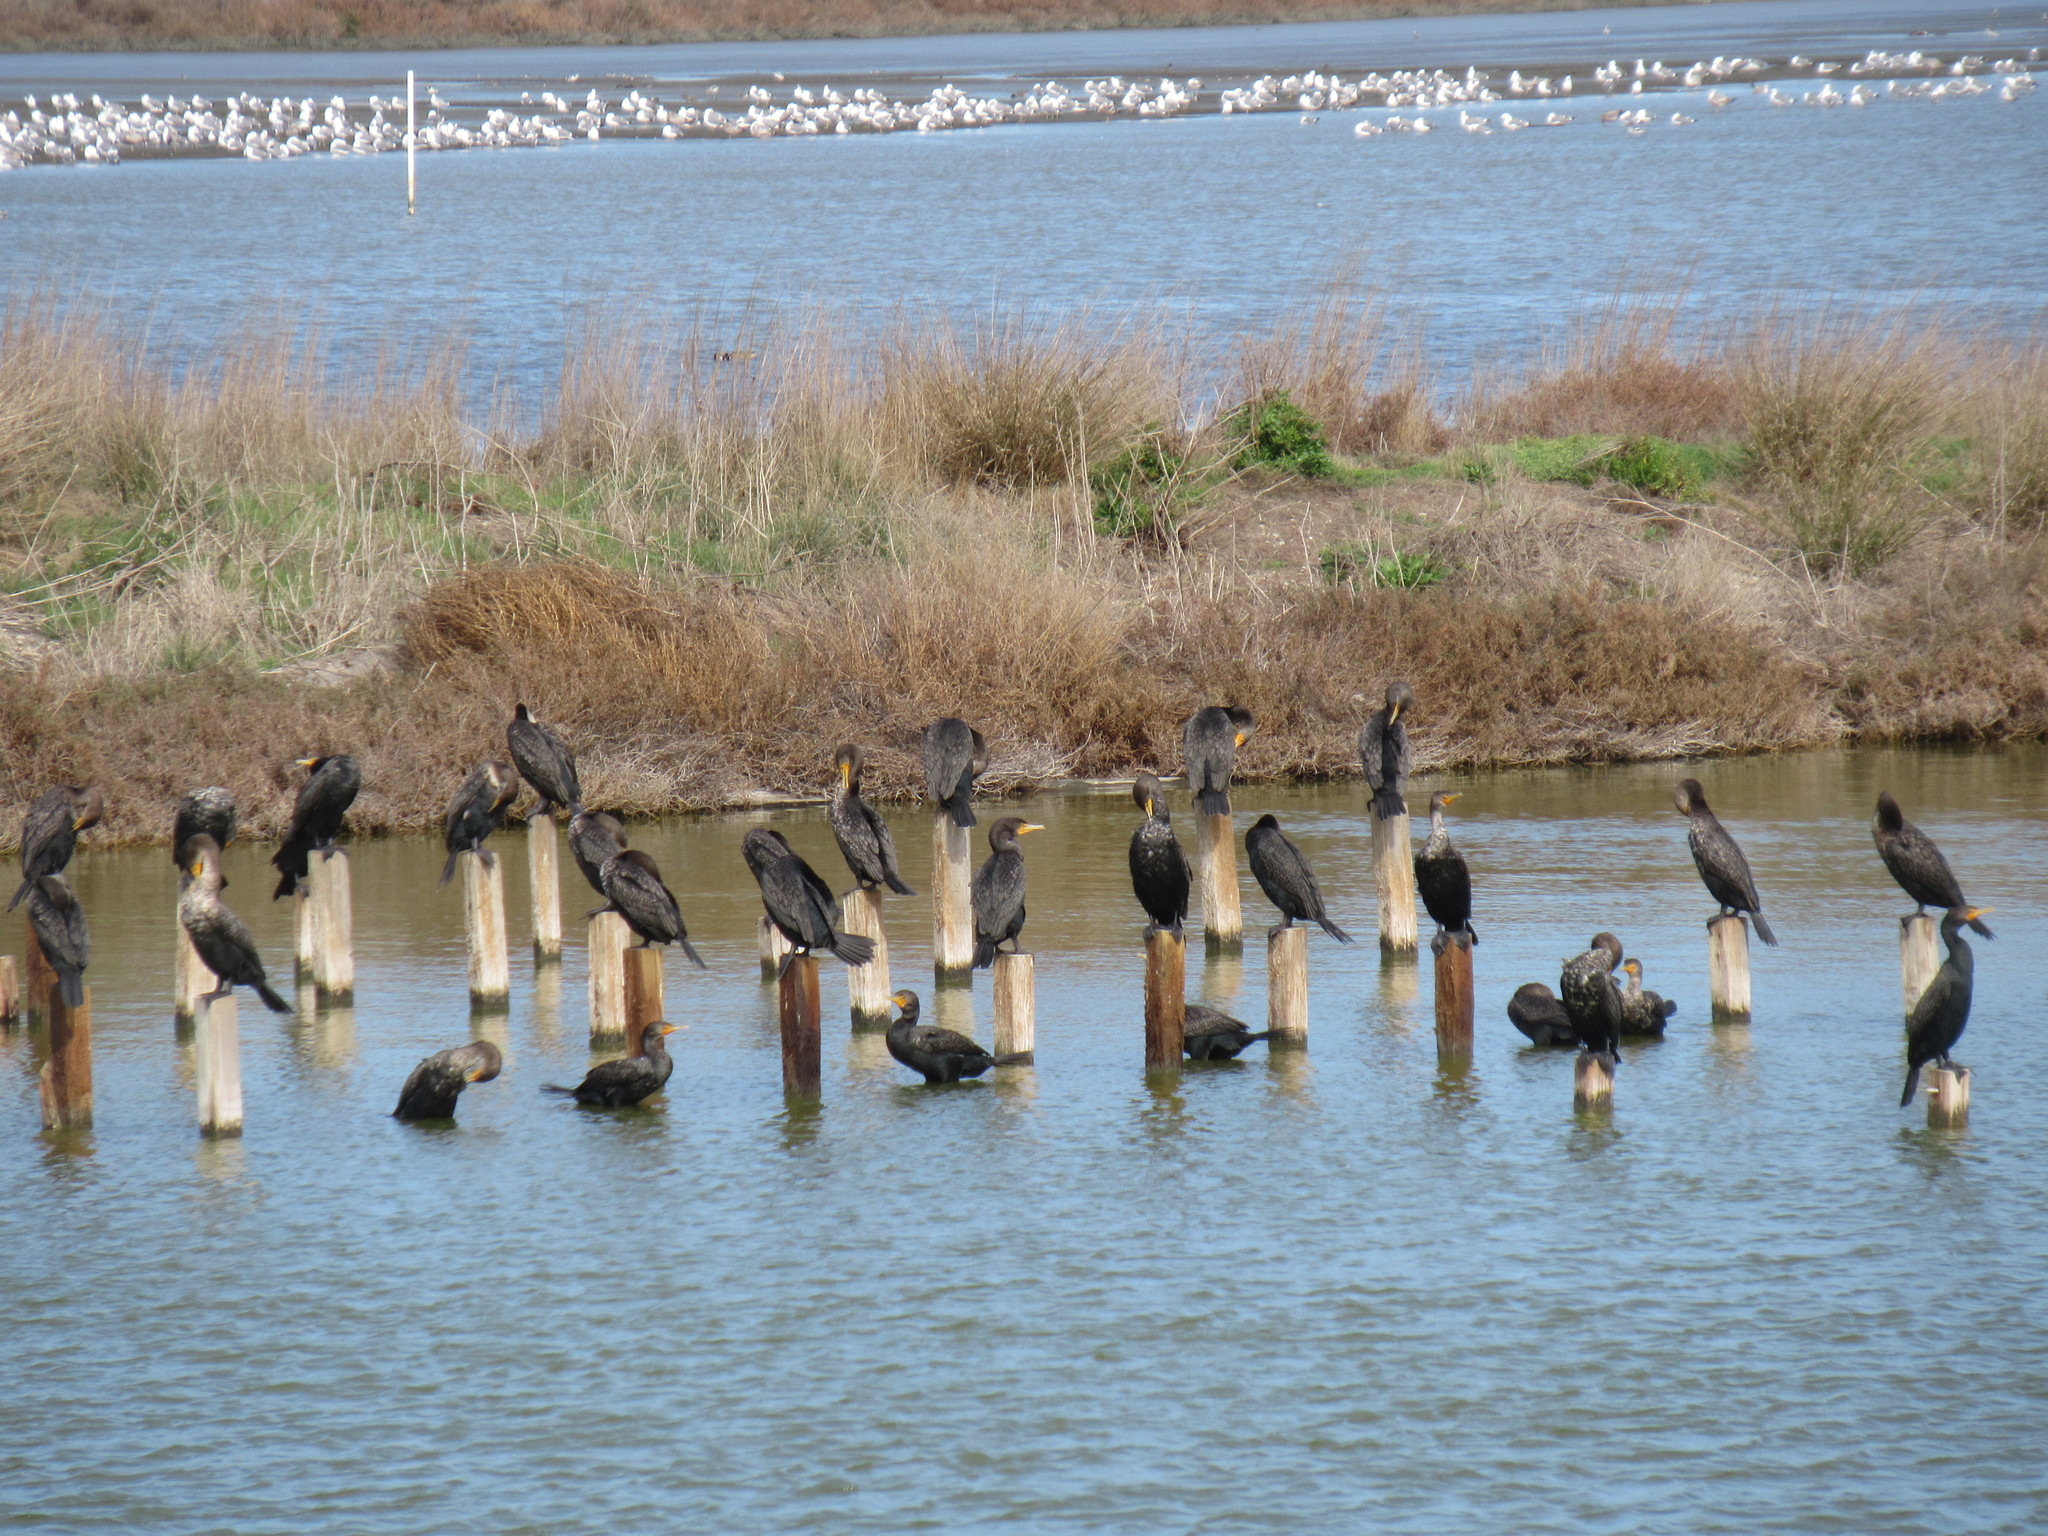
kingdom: Animalia
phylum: Chordata
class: Aves
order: Suliformes
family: Phalacrocoracidae
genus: Phalacrocorax
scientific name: Phalacrocorax auritus
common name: Double-crested cormorant
